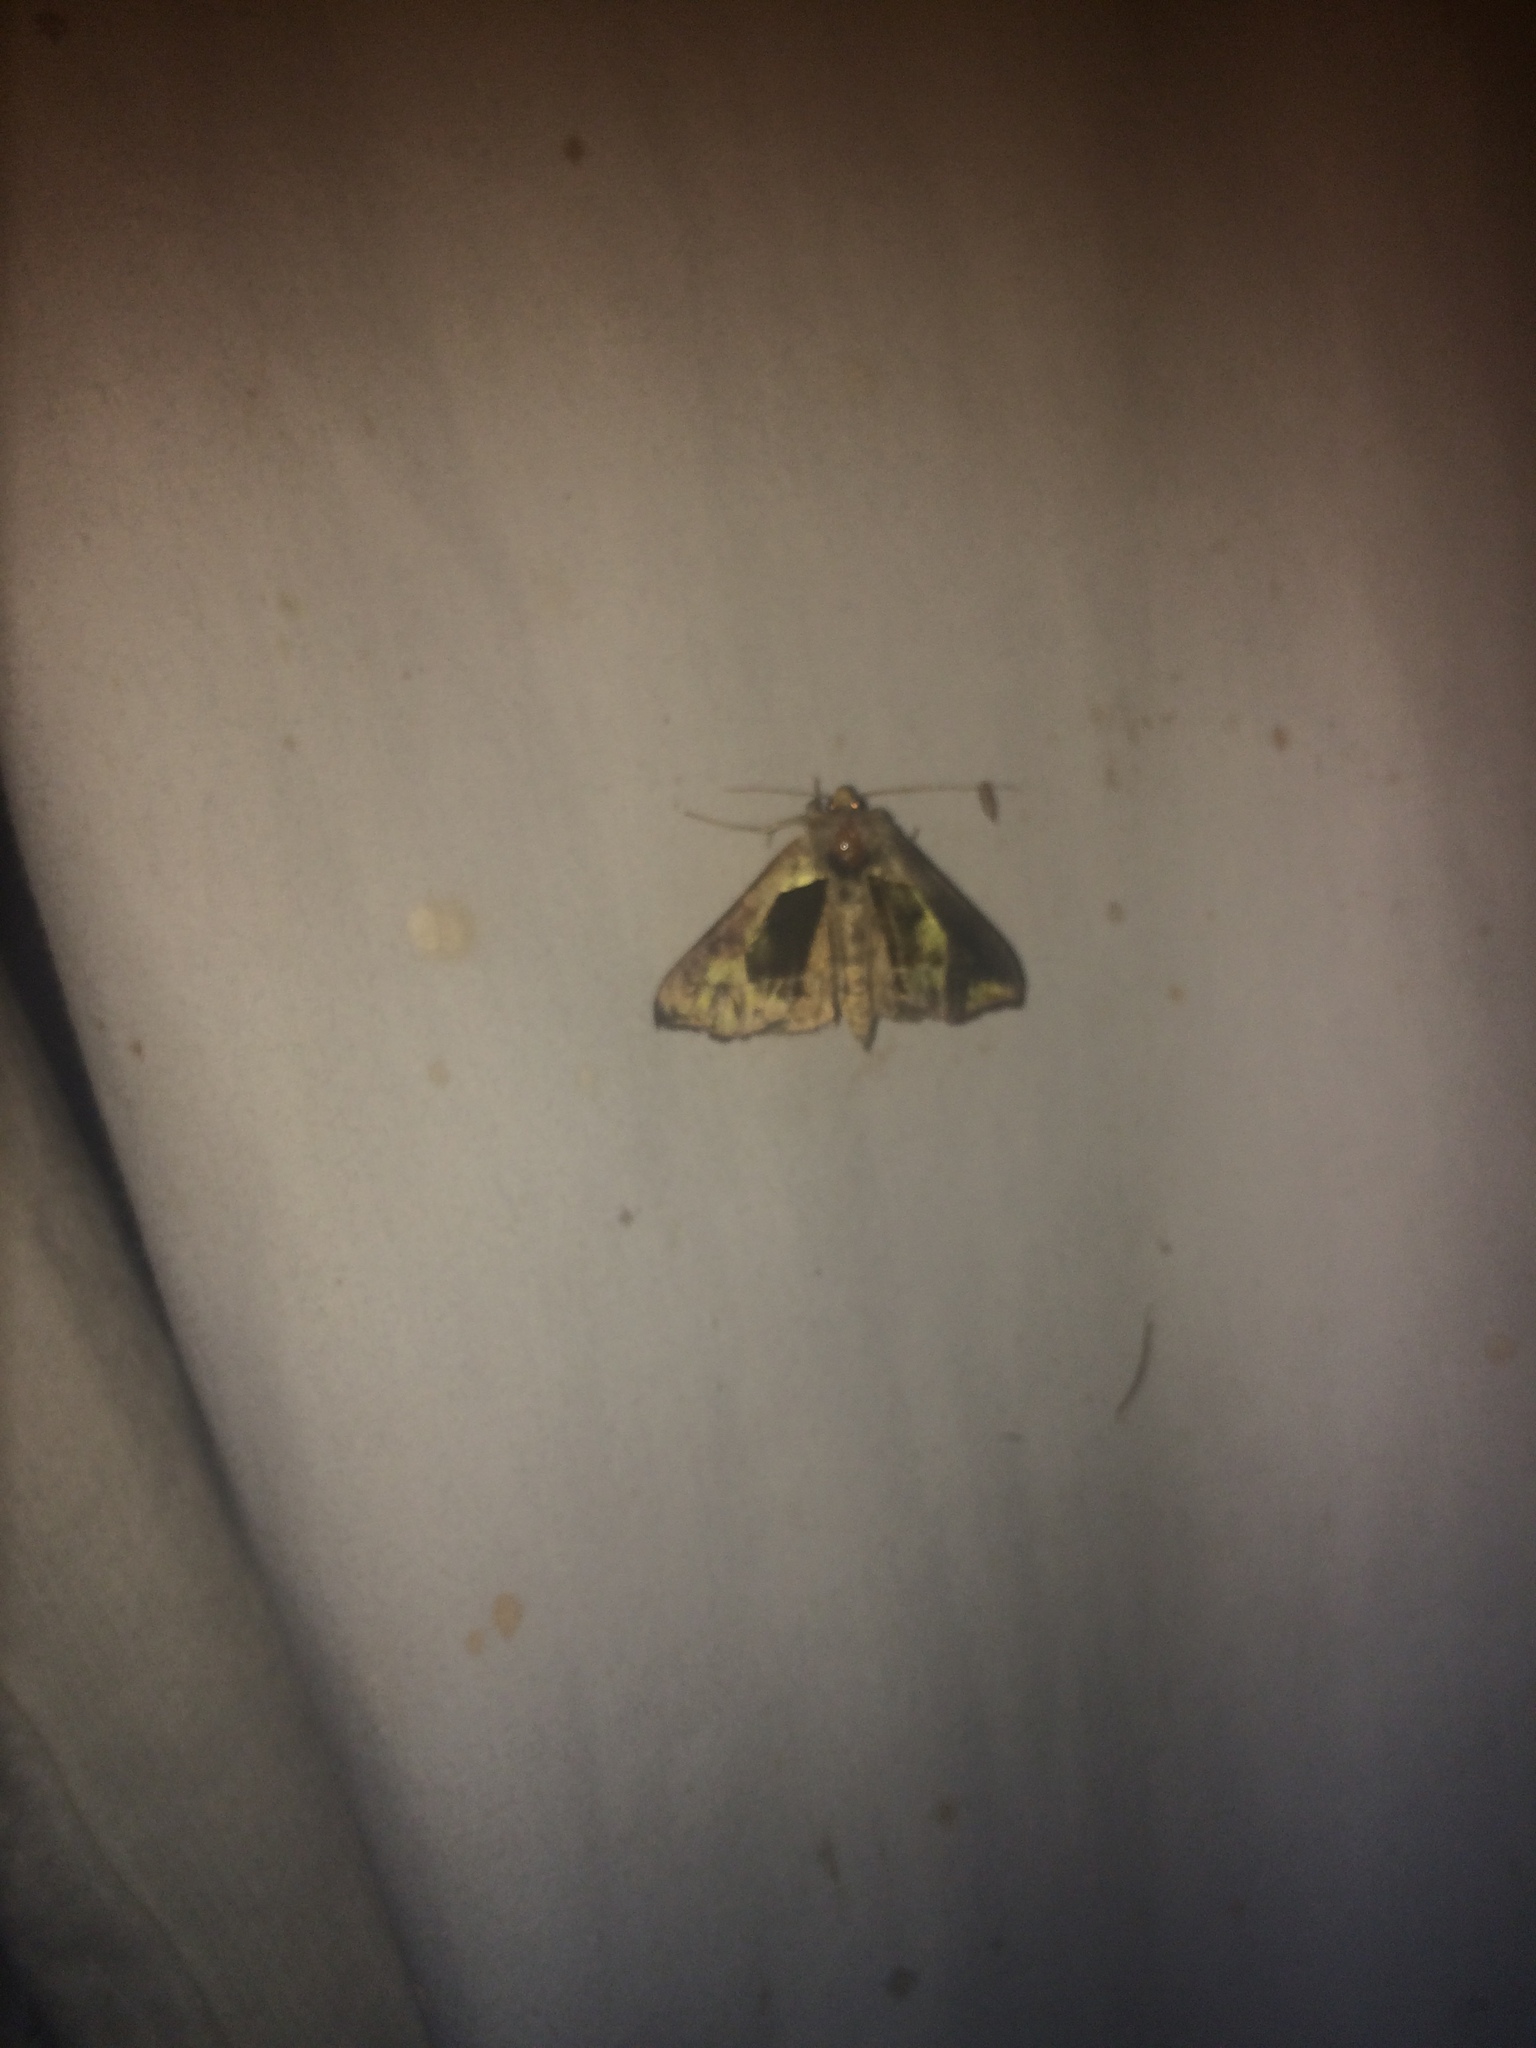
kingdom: Animalia
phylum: Arthropoda
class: Insecta
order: Lepidoptera
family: Noctuidae
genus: Diachrysia
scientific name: Diachrysia balluca
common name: Green-patched looper moth
